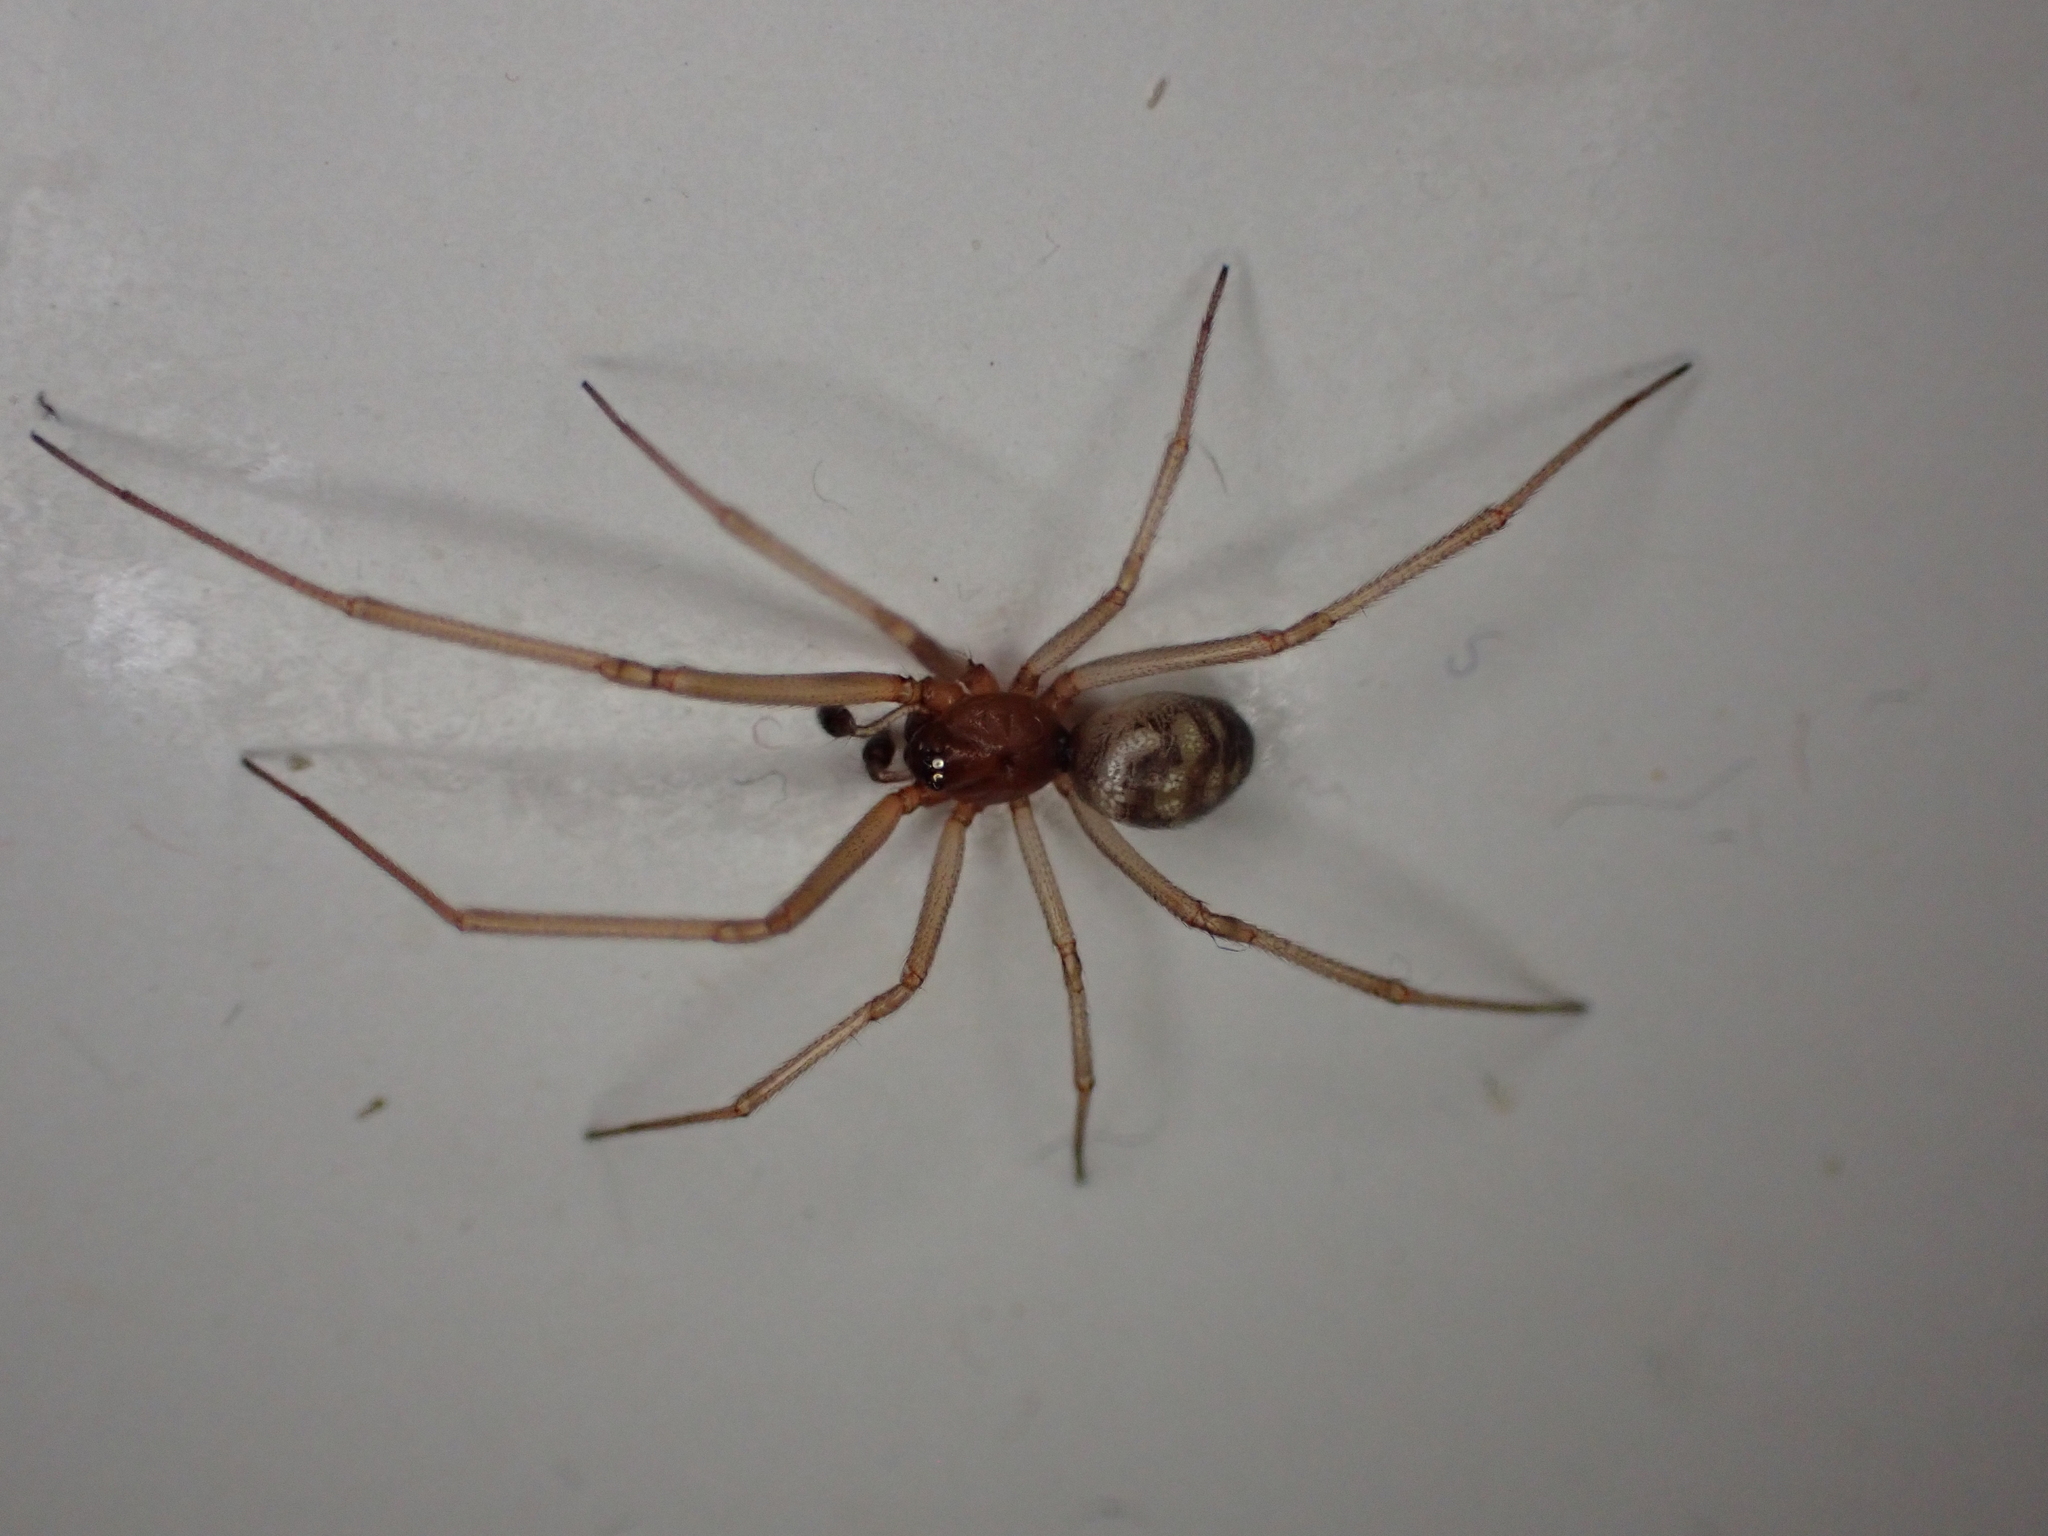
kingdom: Animalia
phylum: Arthropoda
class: Arachnida
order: Araneae
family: Theridiidae
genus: Steatoda
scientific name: Steatoda grossa
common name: False black widow
